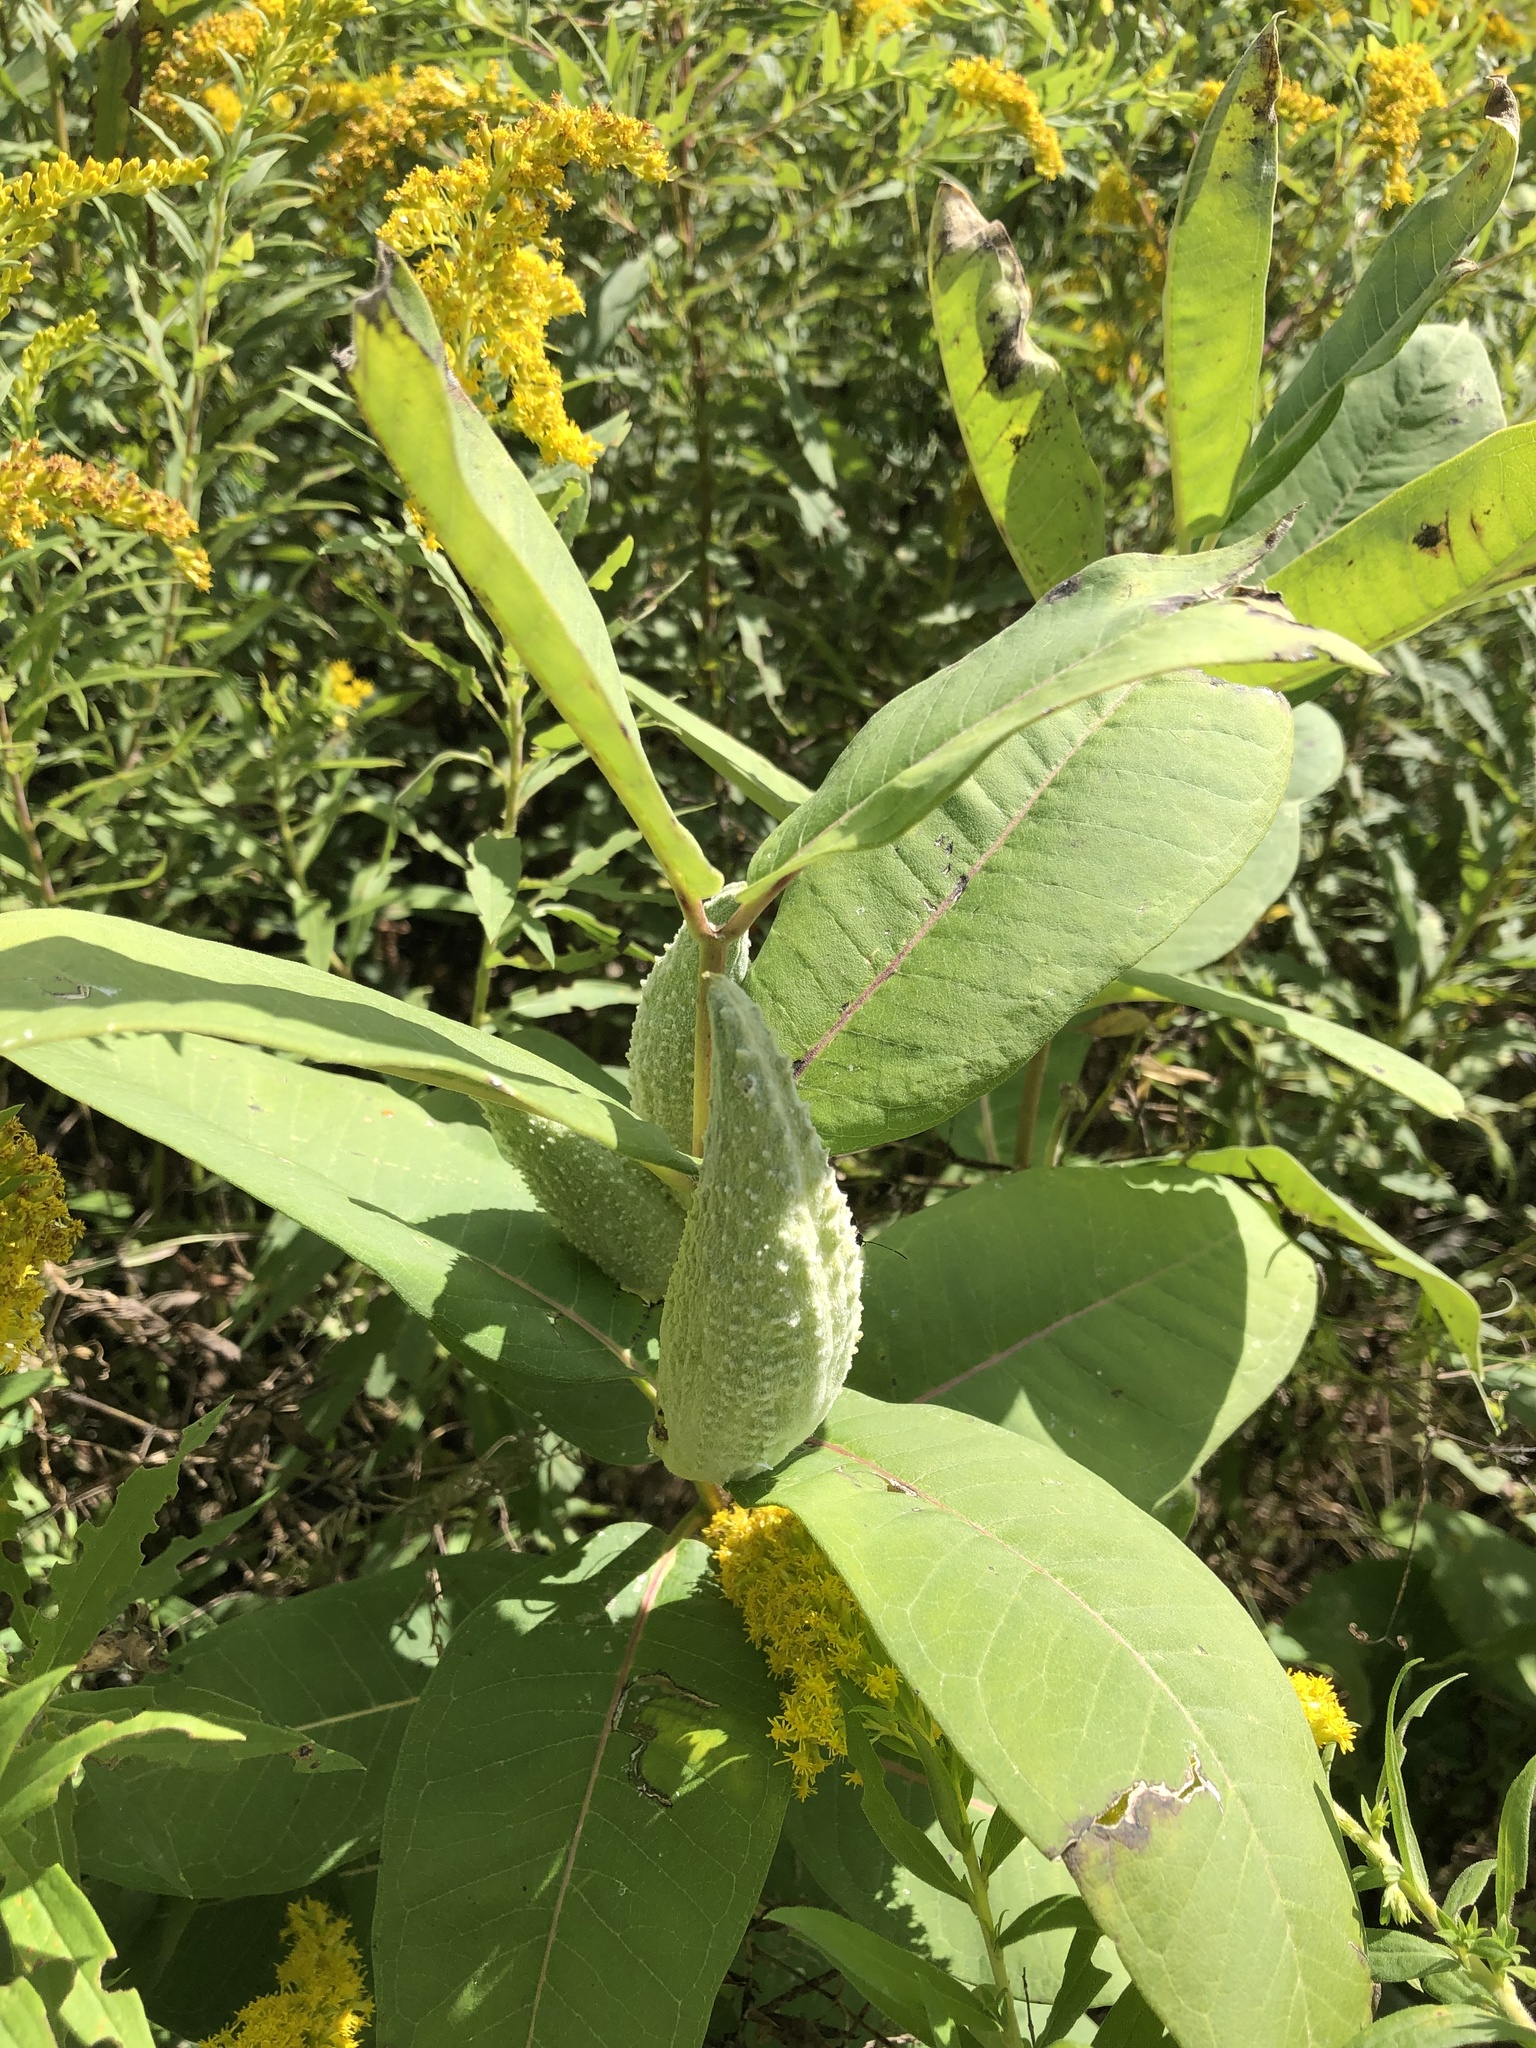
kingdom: Plantae
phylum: Tracheophyta
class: Magnoliopsida
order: Gentianales
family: Apocynaceae
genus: Asclepias
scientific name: Asclepias syriaca
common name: Common milkweed
